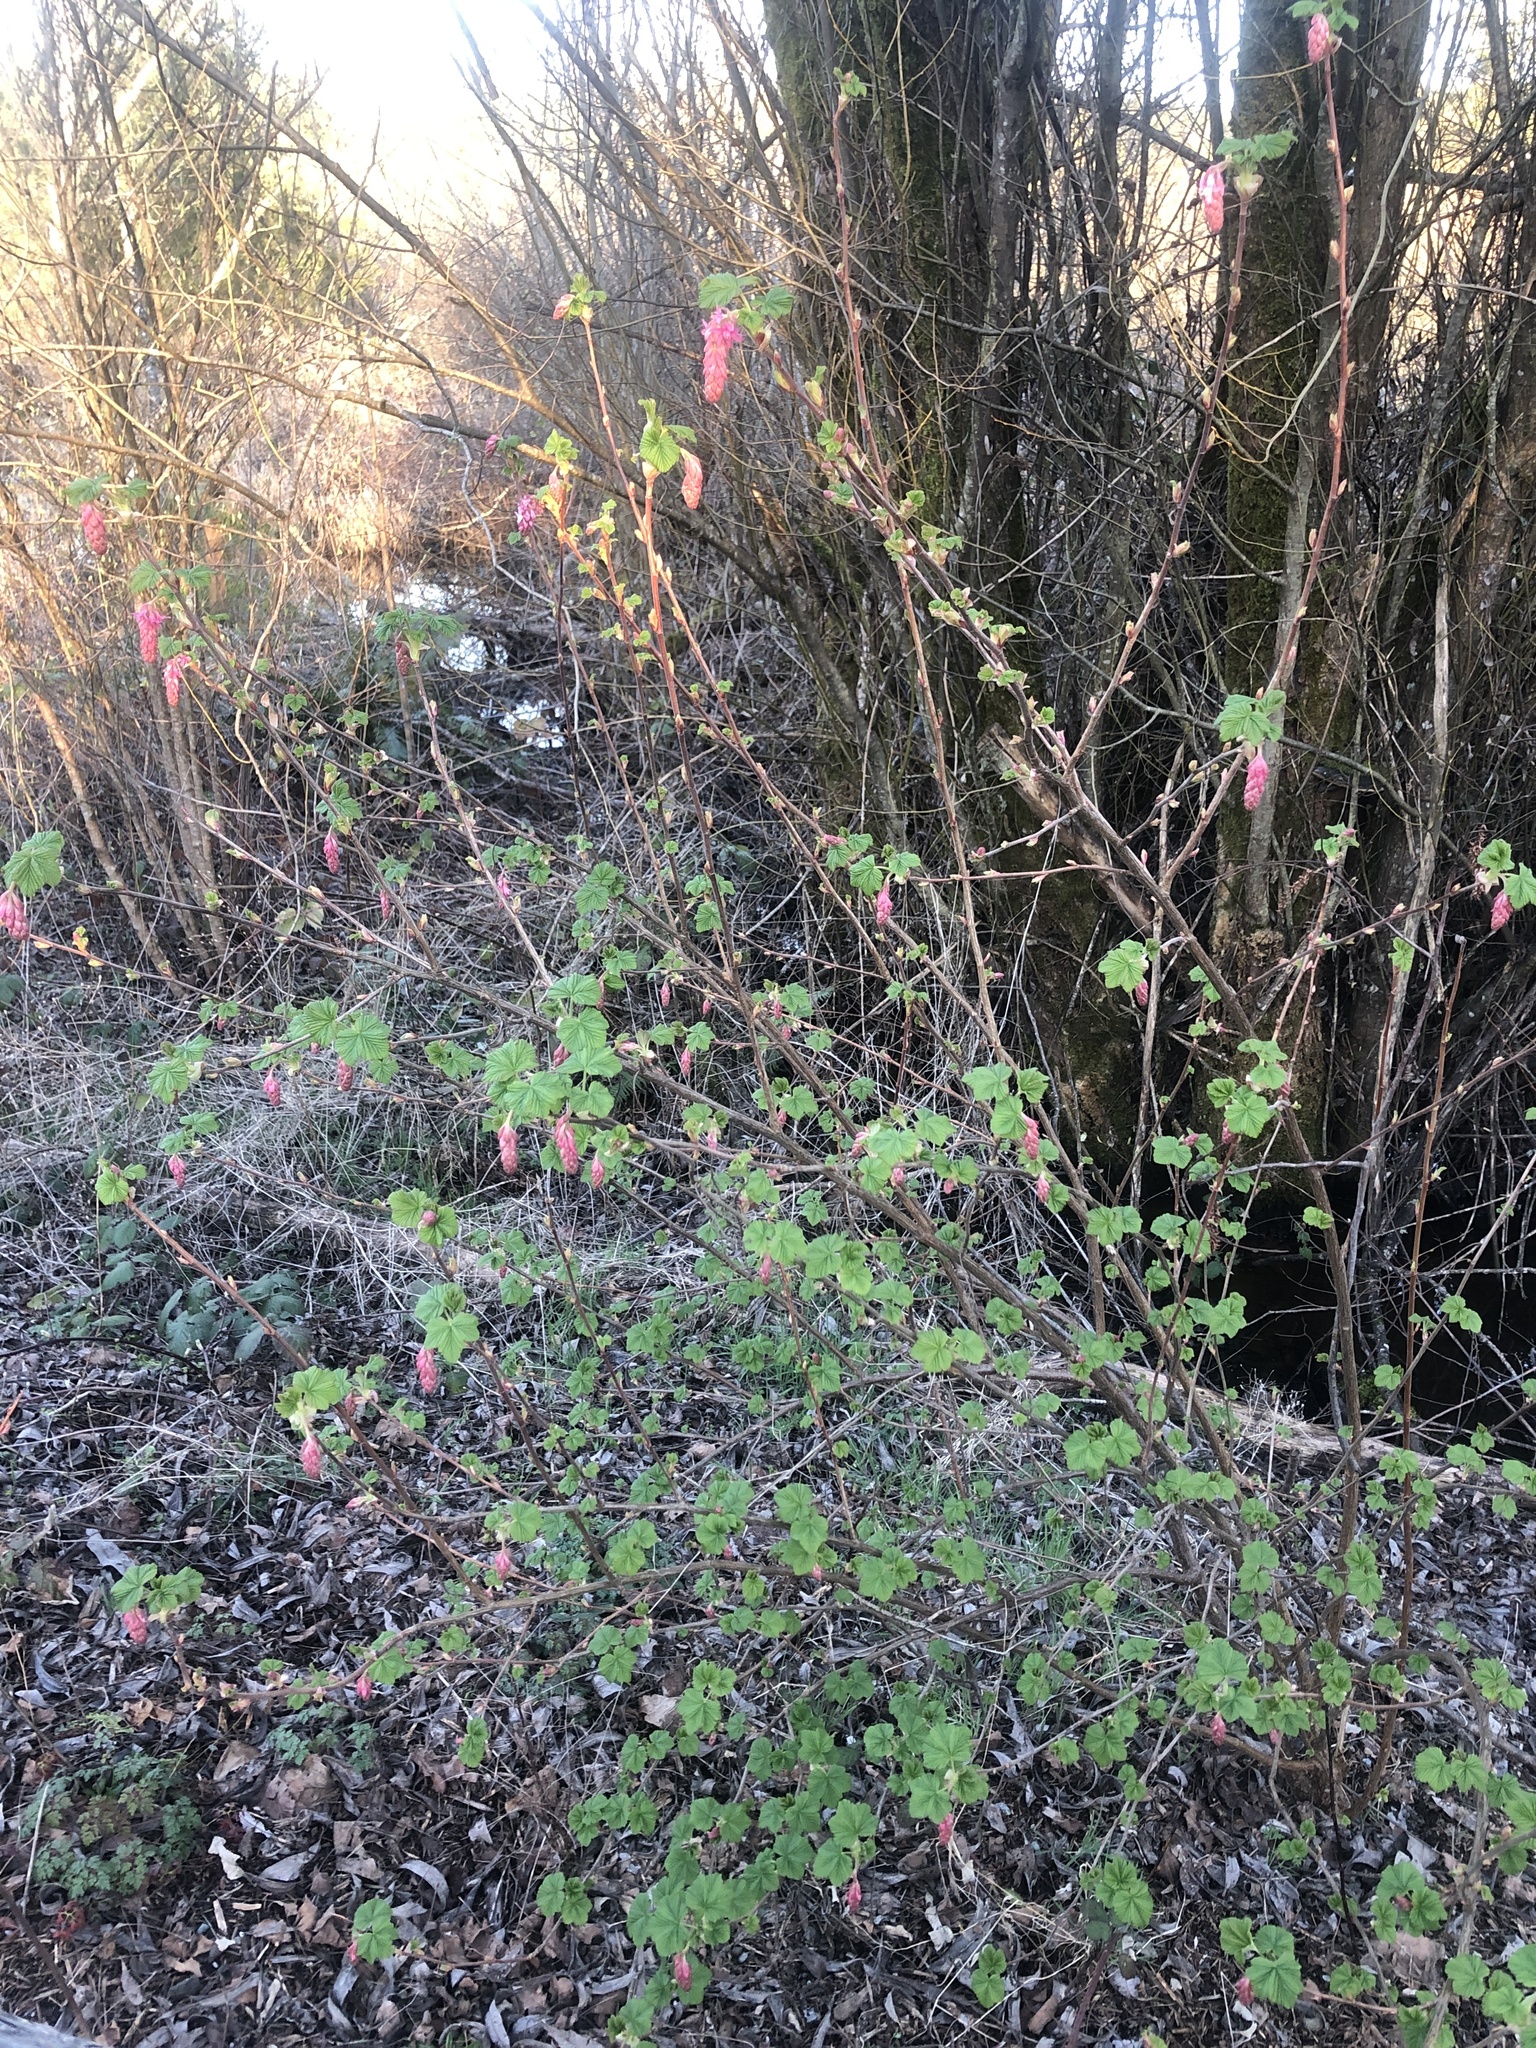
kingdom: Plantae
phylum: Tracheophyta
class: Magnoliopsida
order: Saxifragales
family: Grossulariaceae
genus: Ribes
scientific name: Ribes sanguineum
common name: Flowering currant
